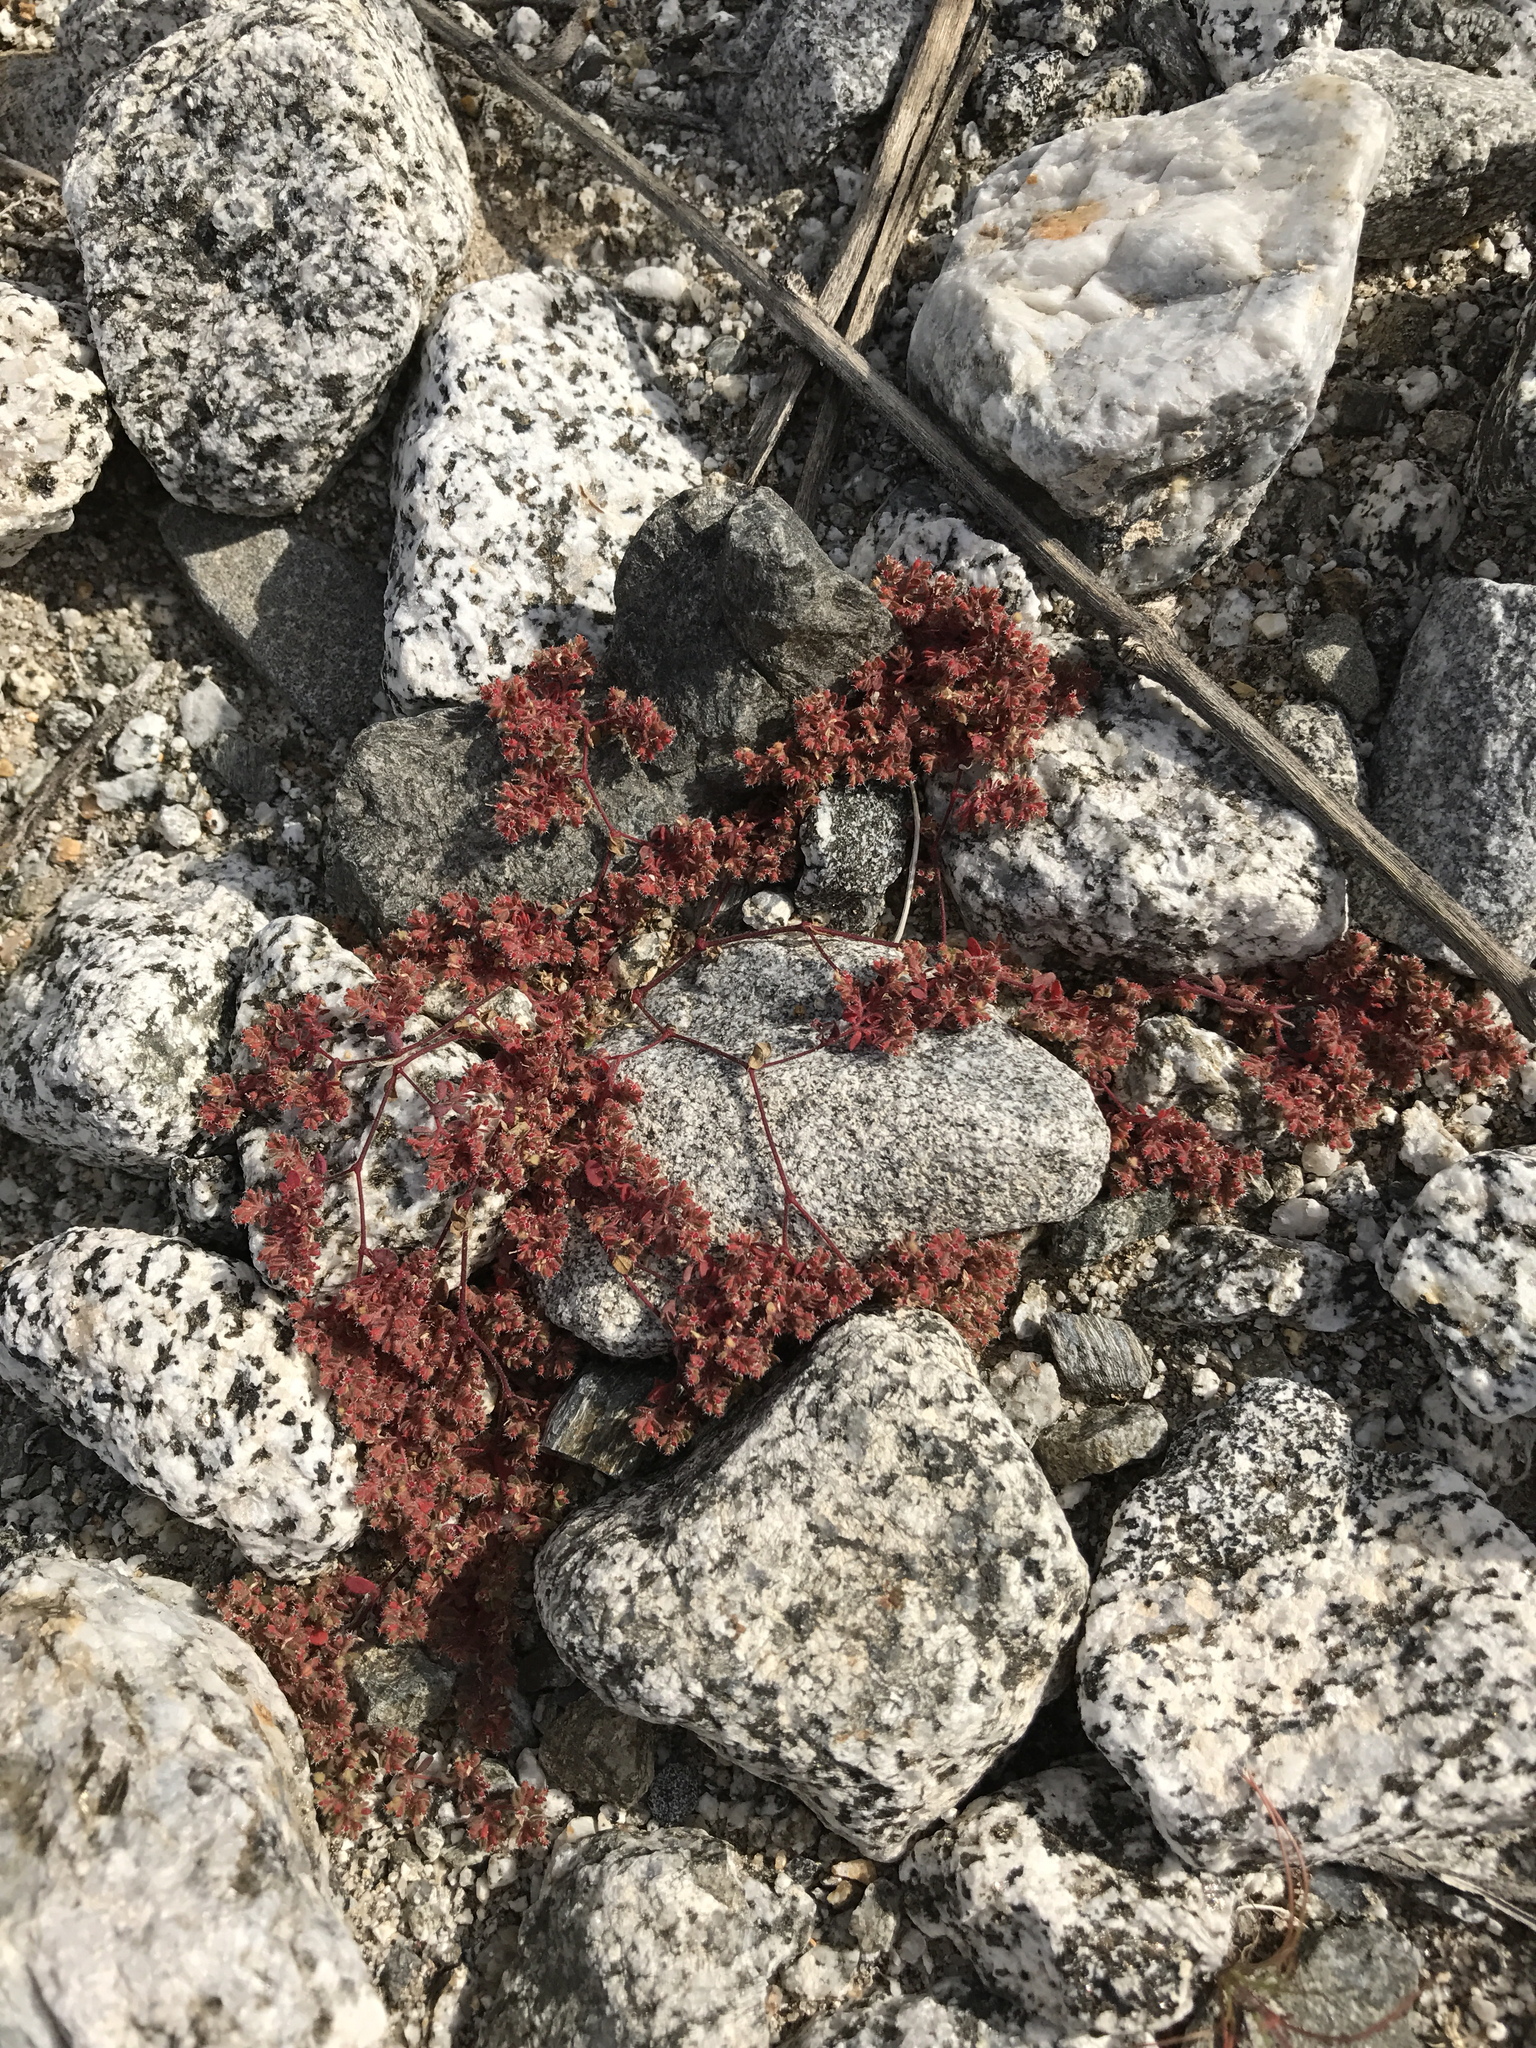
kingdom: Plantae
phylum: Tracheophyta
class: Magnoliopsida
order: Malpighiales
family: Euphorbiaceae
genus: Euphorbia
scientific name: Euphorbia setiloba
